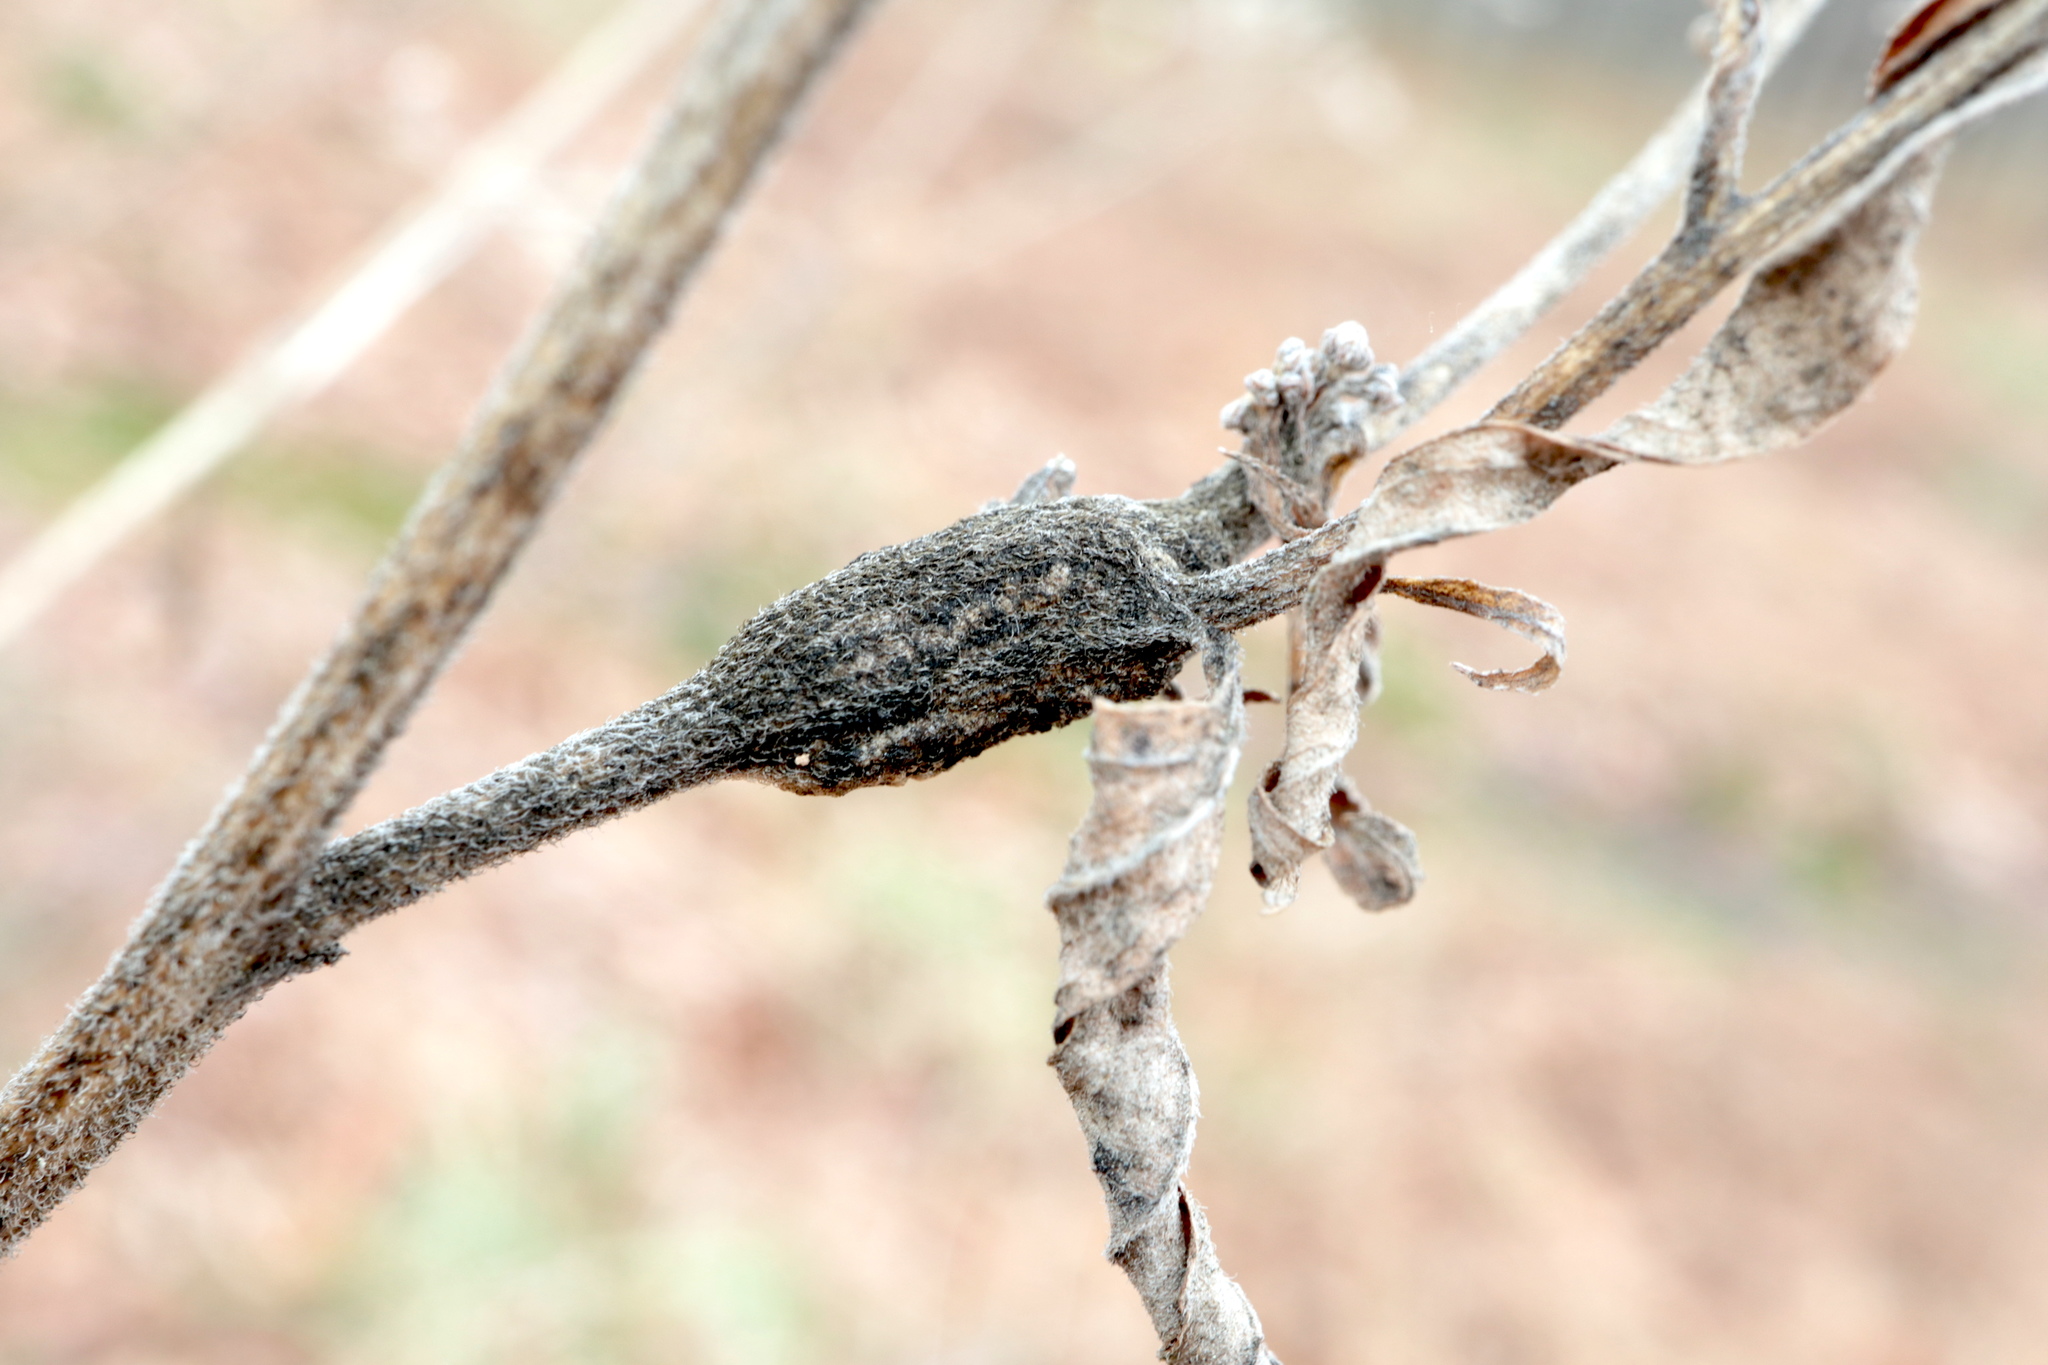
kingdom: Animalia
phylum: Arthropoda
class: Insecta
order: Diptera
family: Cecidomyiidae
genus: Neolasioptera
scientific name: Neolasioptera perfoliata
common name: Boneset stem midge
